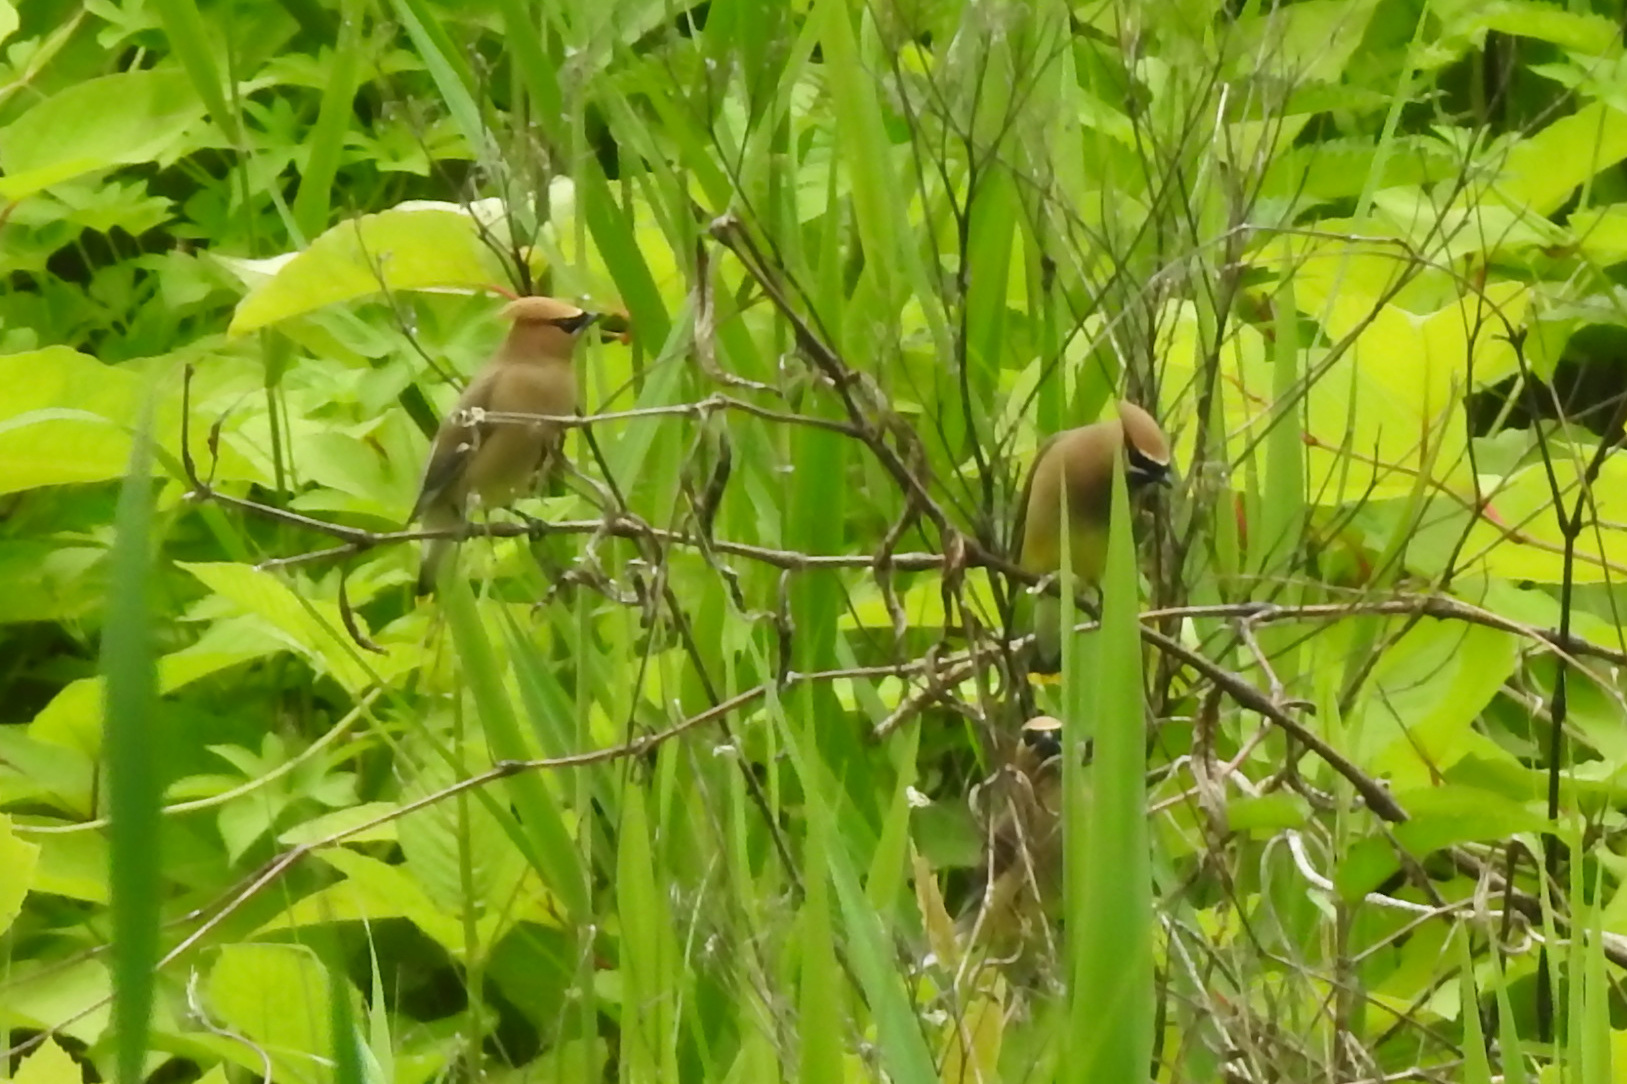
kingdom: Animalia
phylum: Chordata
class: Aves
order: Passeriformes
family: Bombycillidae
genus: Bombycilla
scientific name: Bombycilla cedrorum
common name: Cedar waxwing
